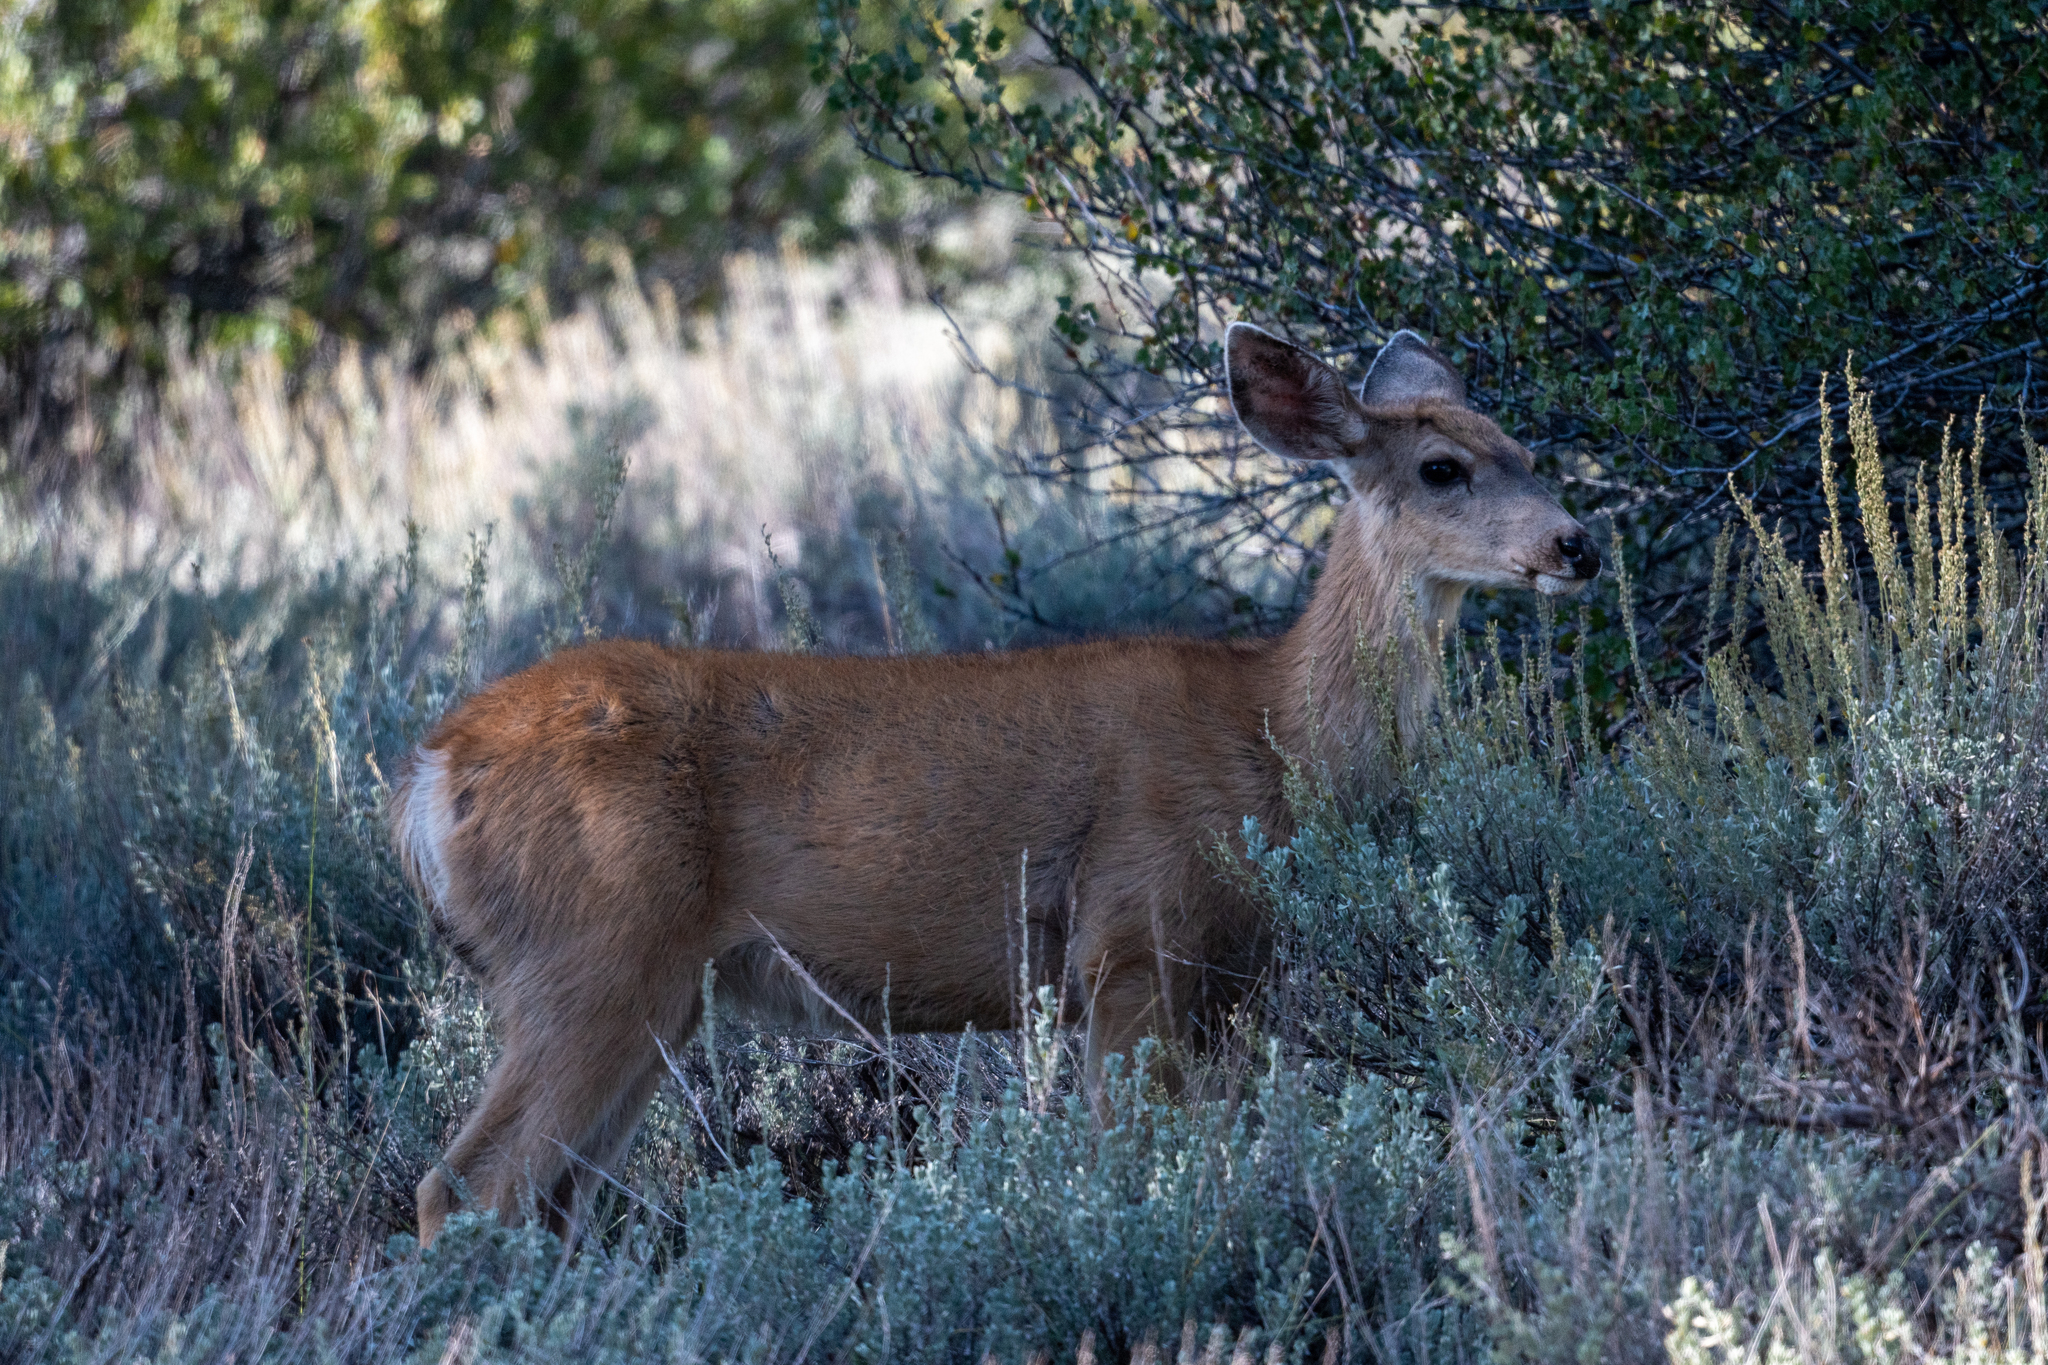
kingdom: Animalia
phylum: Chordata
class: Mammalia
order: Artiodactyla
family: Cervidae
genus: Odocoileus
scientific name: Odocoileus hemionus
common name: Mule deer
